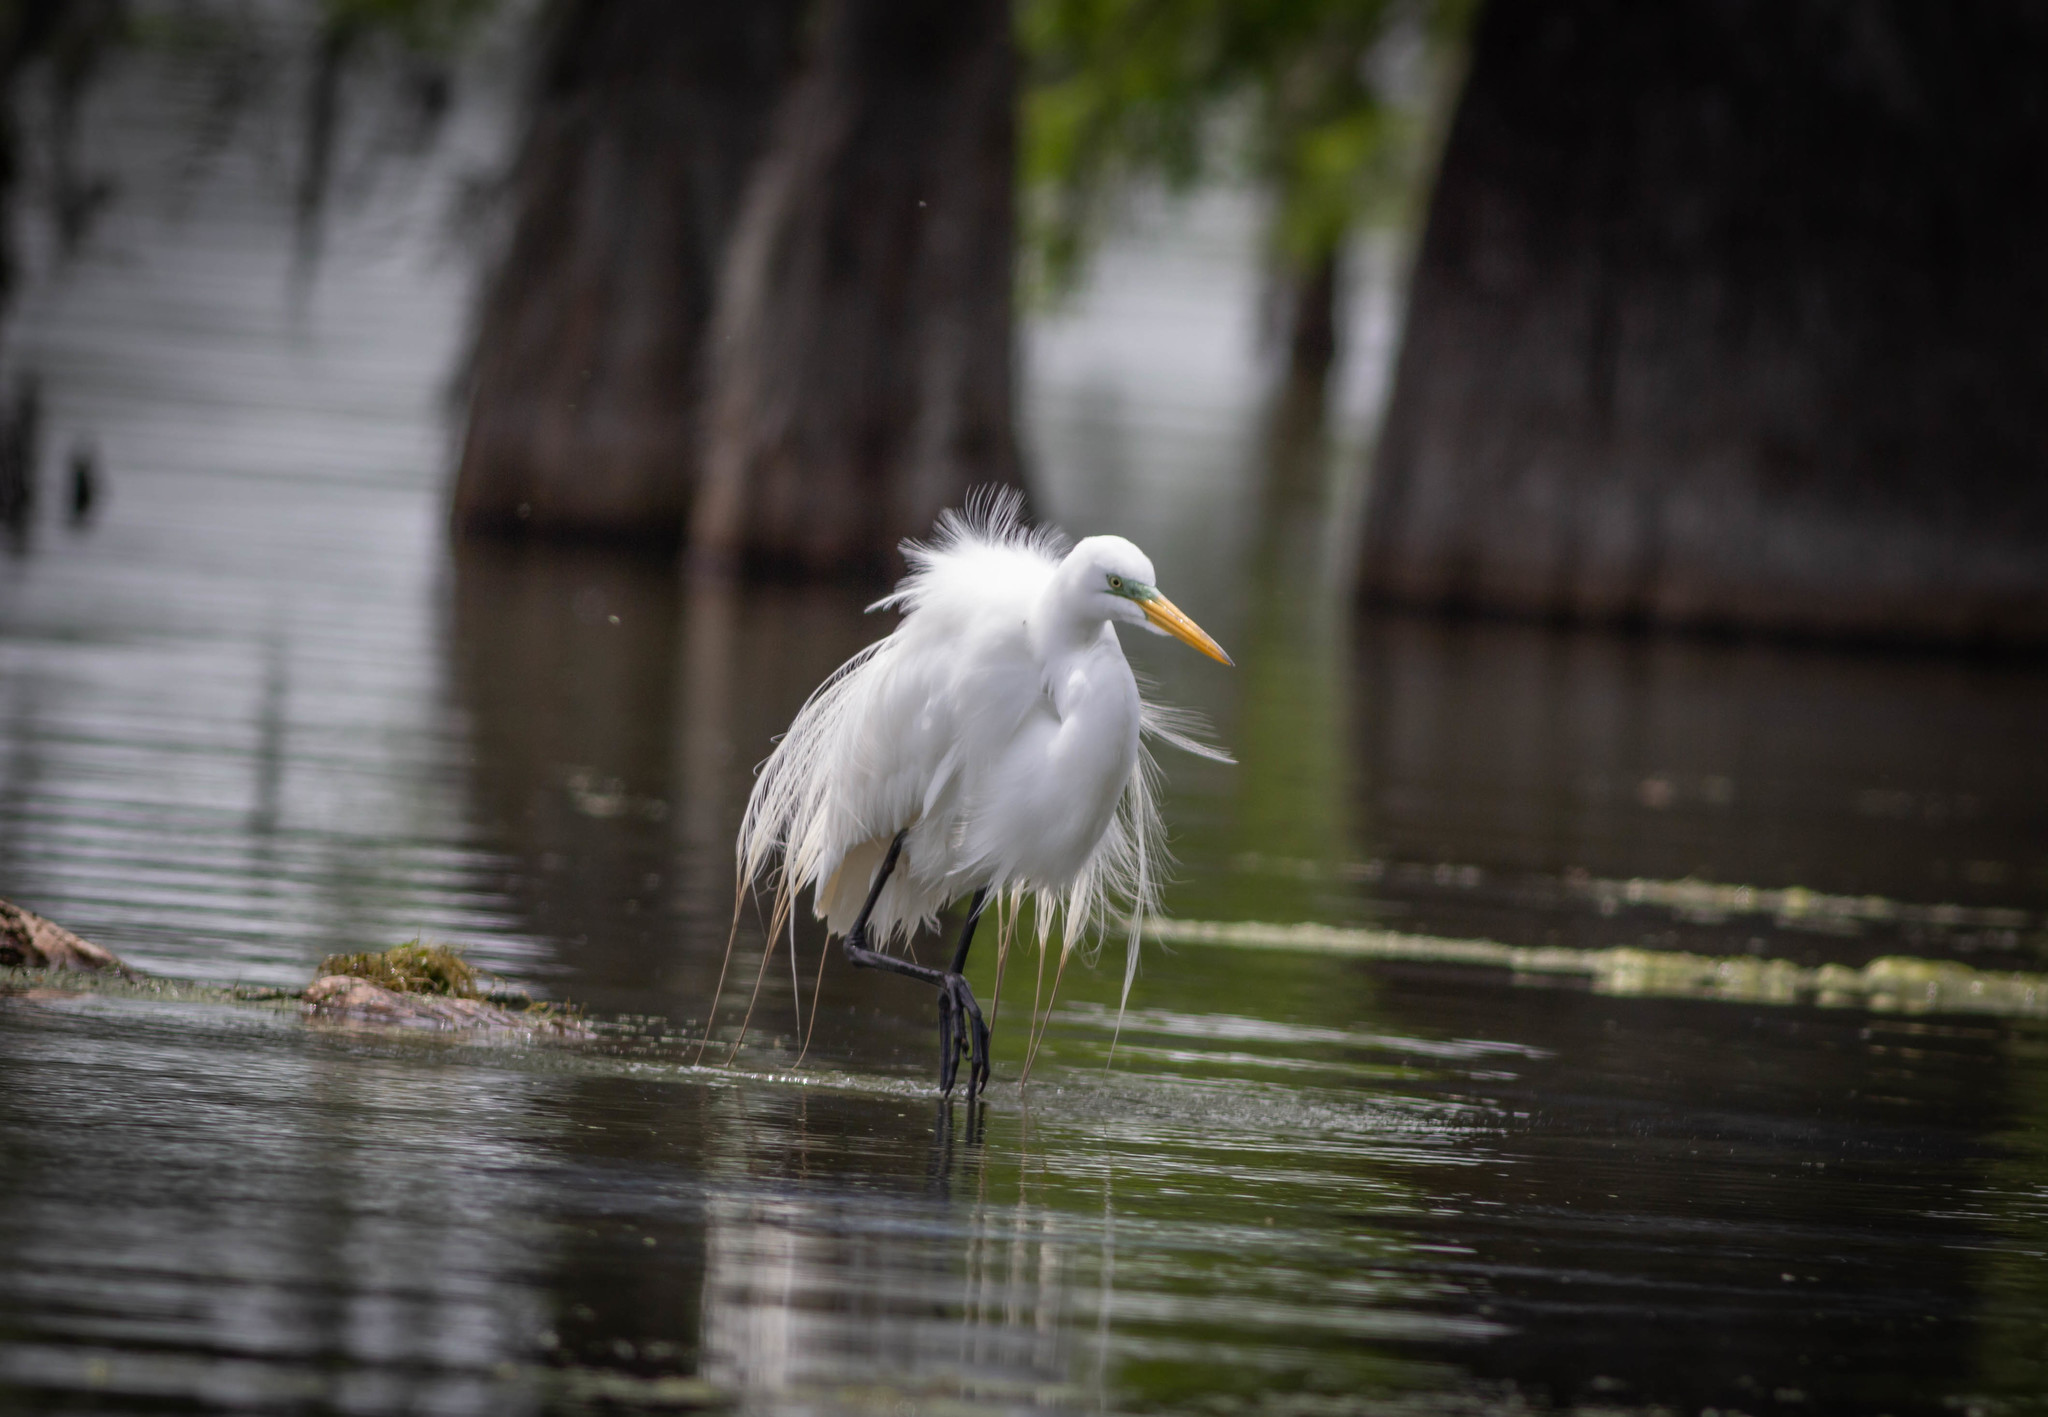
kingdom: Animalia
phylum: Chordata
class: Aves
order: Pelecaniformes
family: Ardeidae
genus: Ardea
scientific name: Ardea alba
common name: Great egret
